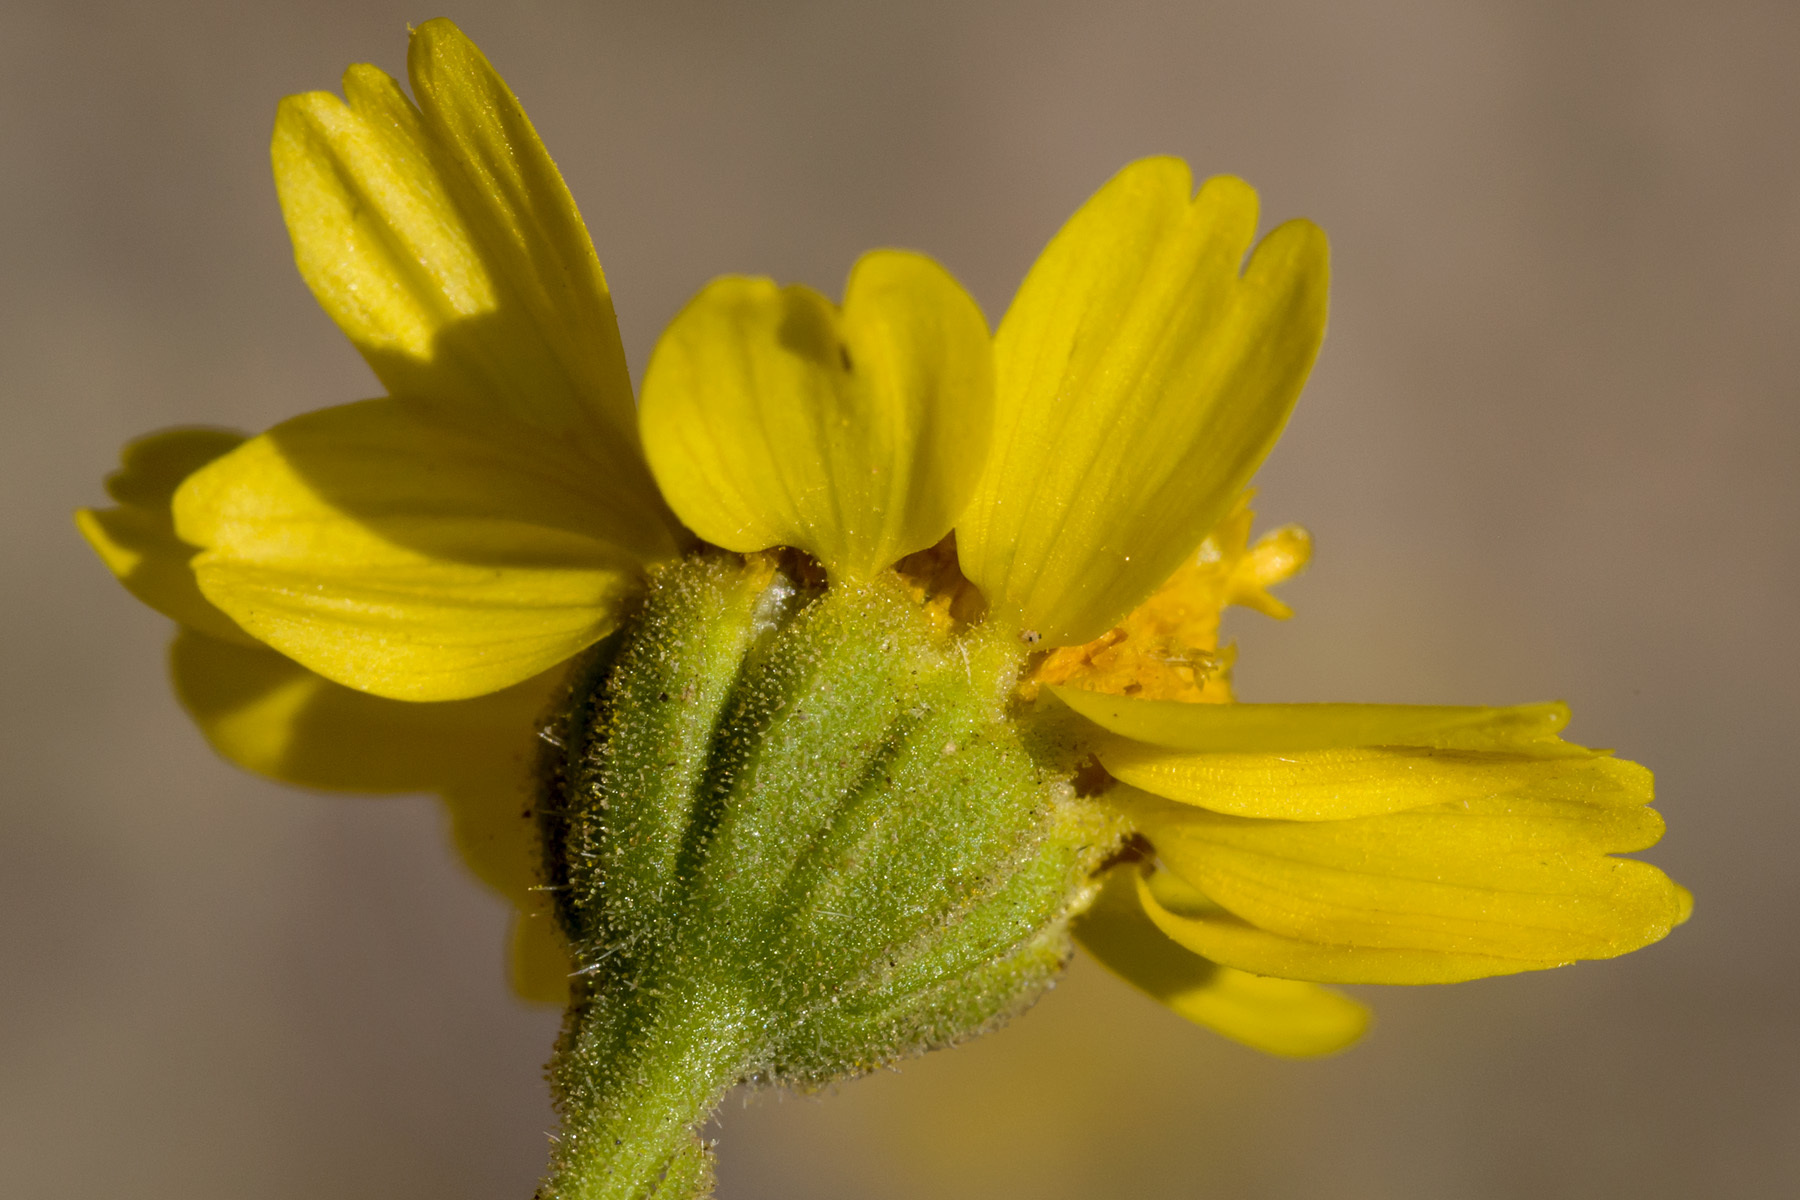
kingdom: Plantae
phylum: Tracheophyta
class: Magnoliopsida
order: Asterales
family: Asteraceae
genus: Hymenothrix
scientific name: Hymenothrix pedata
